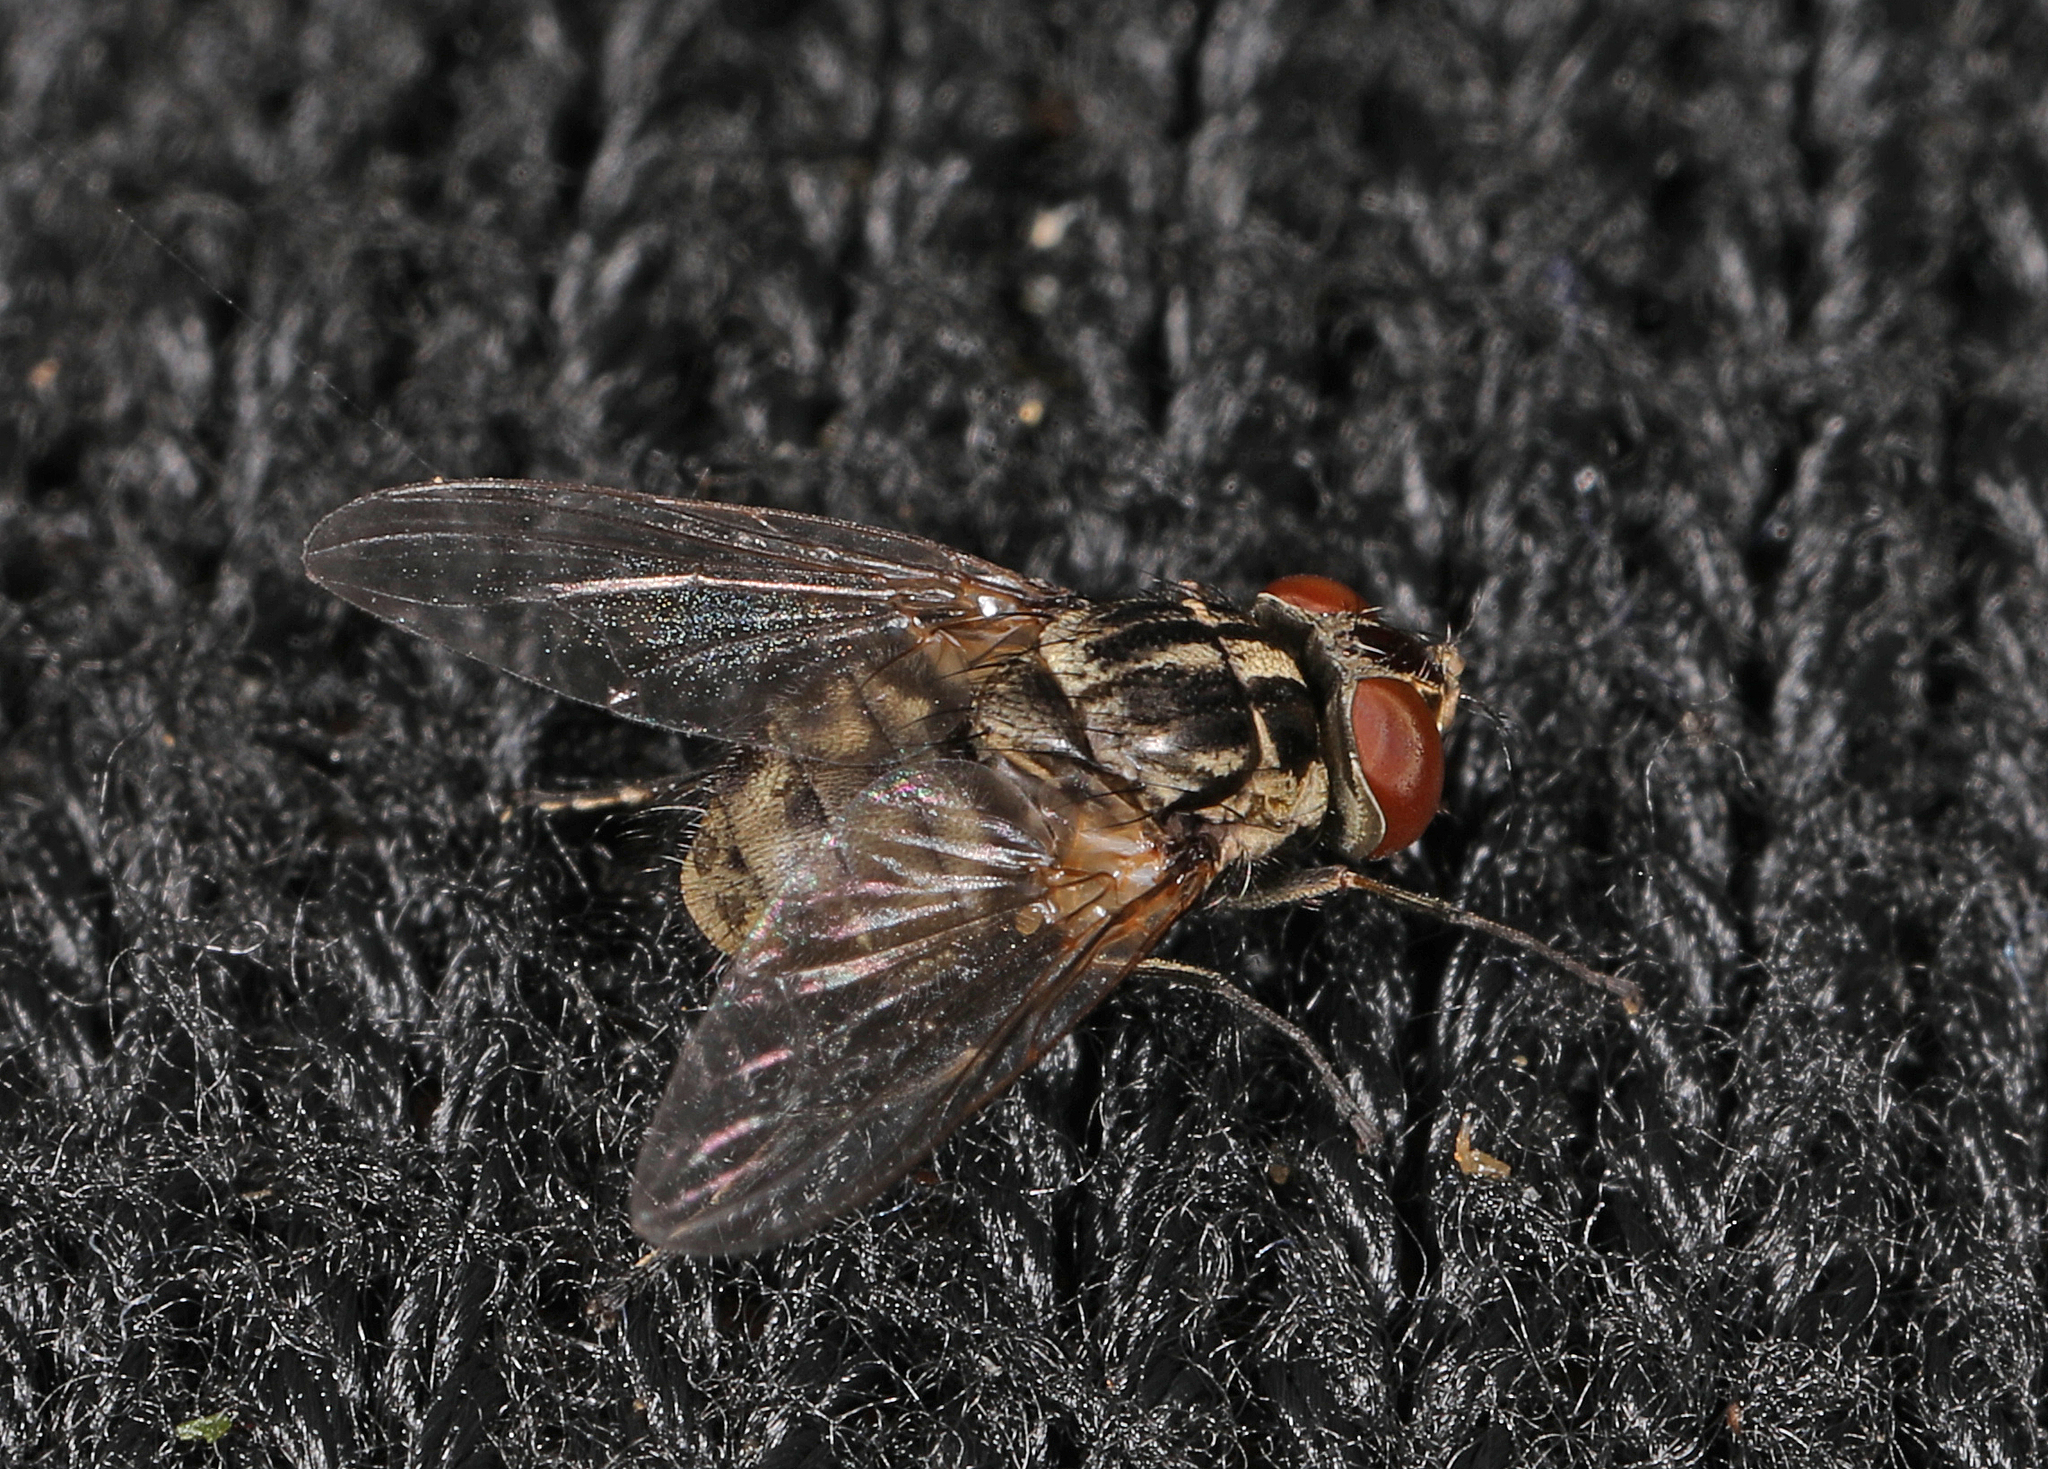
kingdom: Animalia
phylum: Arthropoda
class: Insecta
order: Diptera
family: Muscidae
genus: Stomoxys
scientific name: Stomoxys calcitrans
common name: Stable fly
